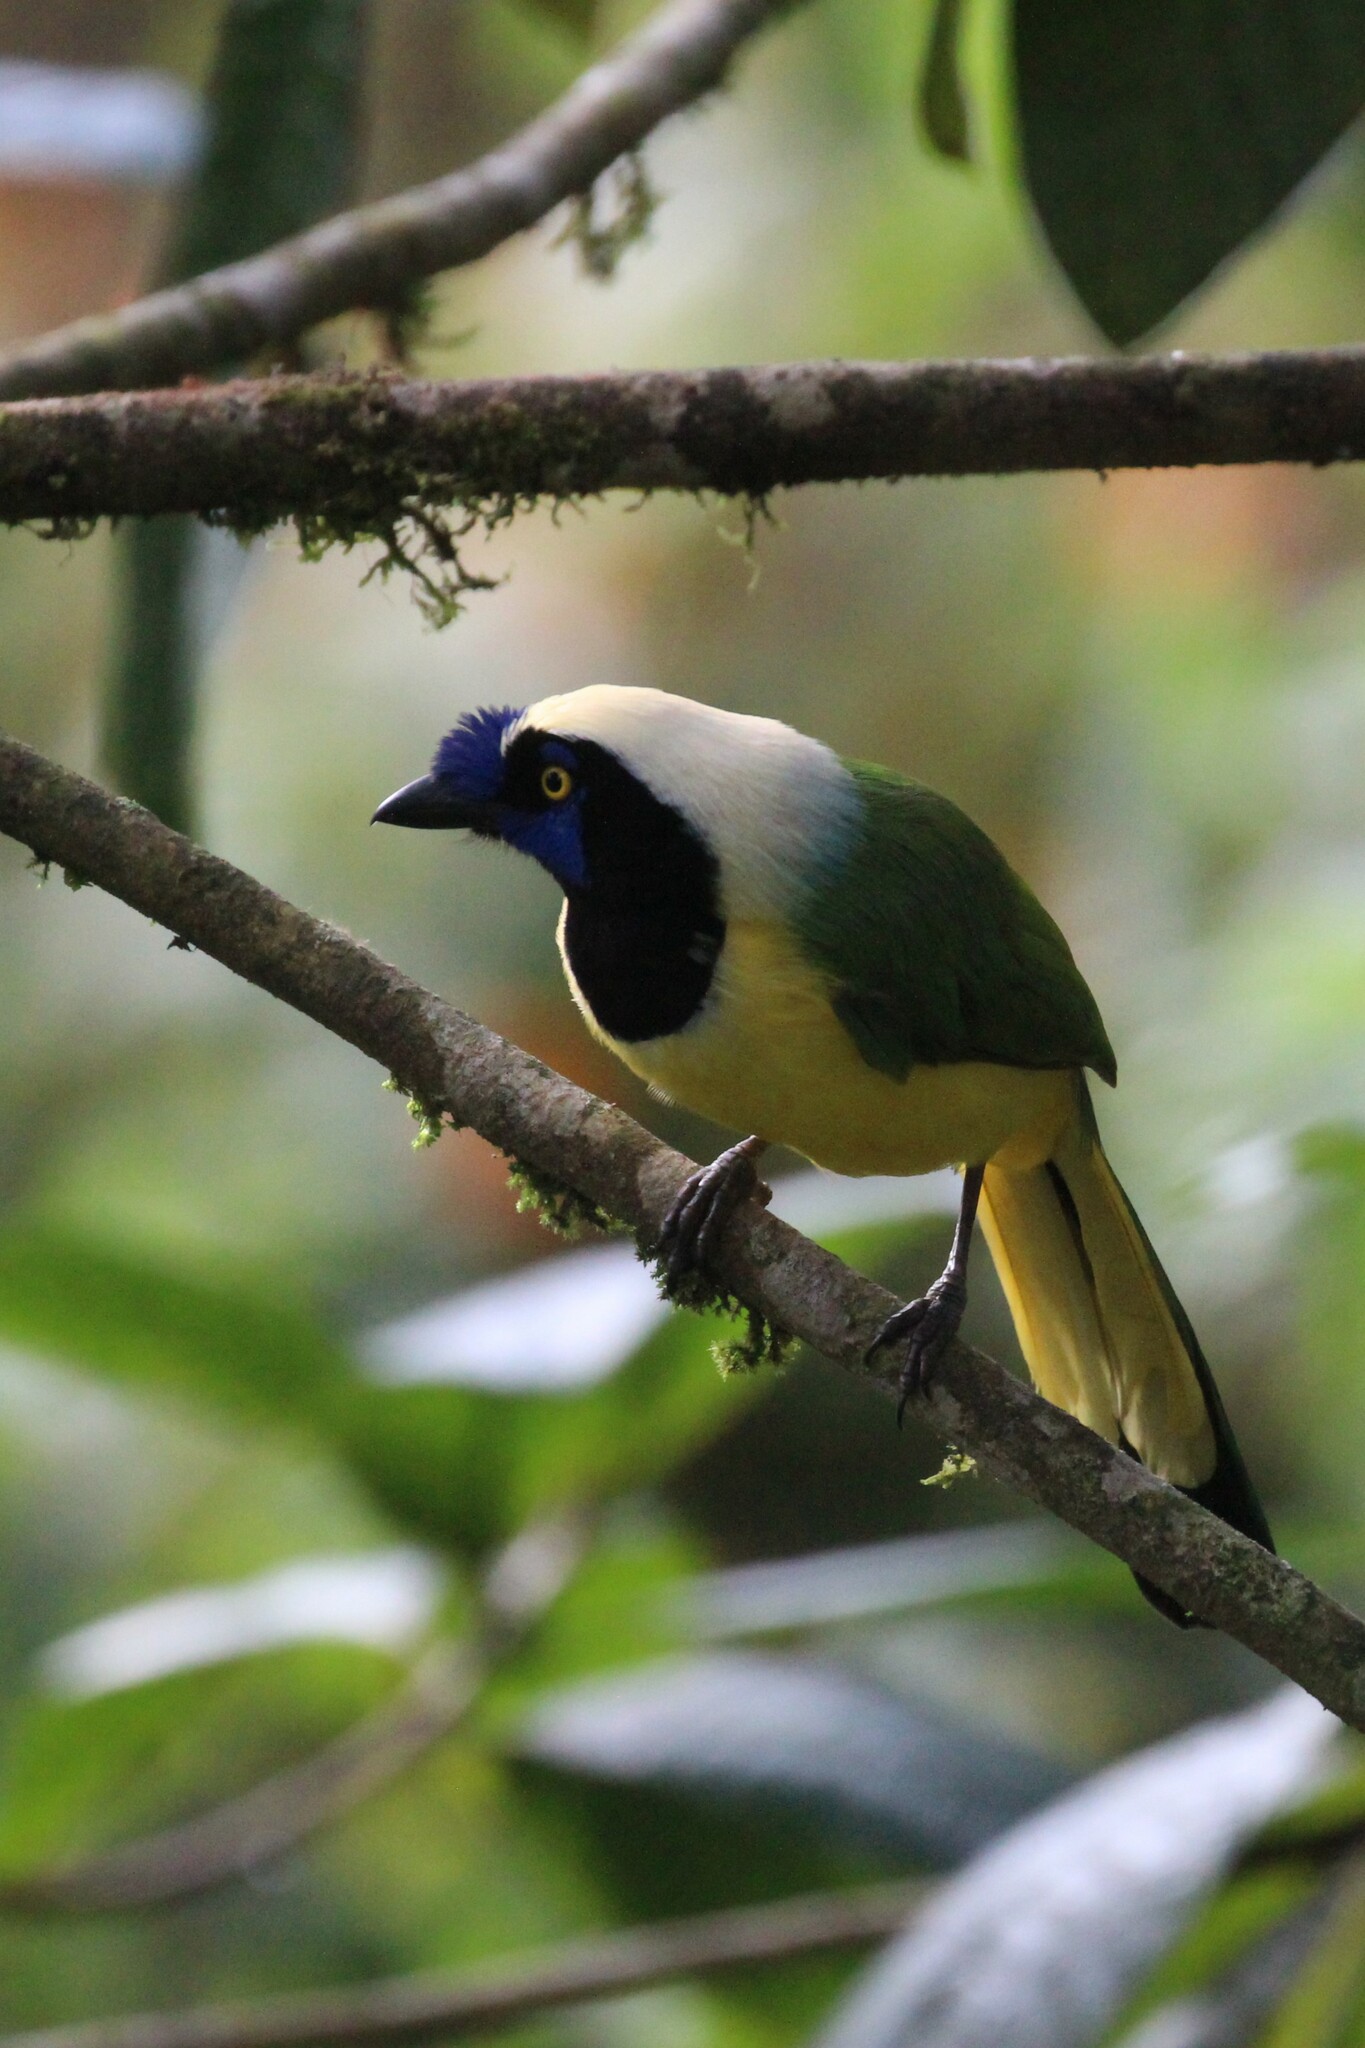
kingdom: Animalia
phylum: Chordata
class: Aves
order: Passeriformes
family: Corvidae
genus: Cyanocorax
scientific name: Cyanocorax yncas
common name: Green jay
